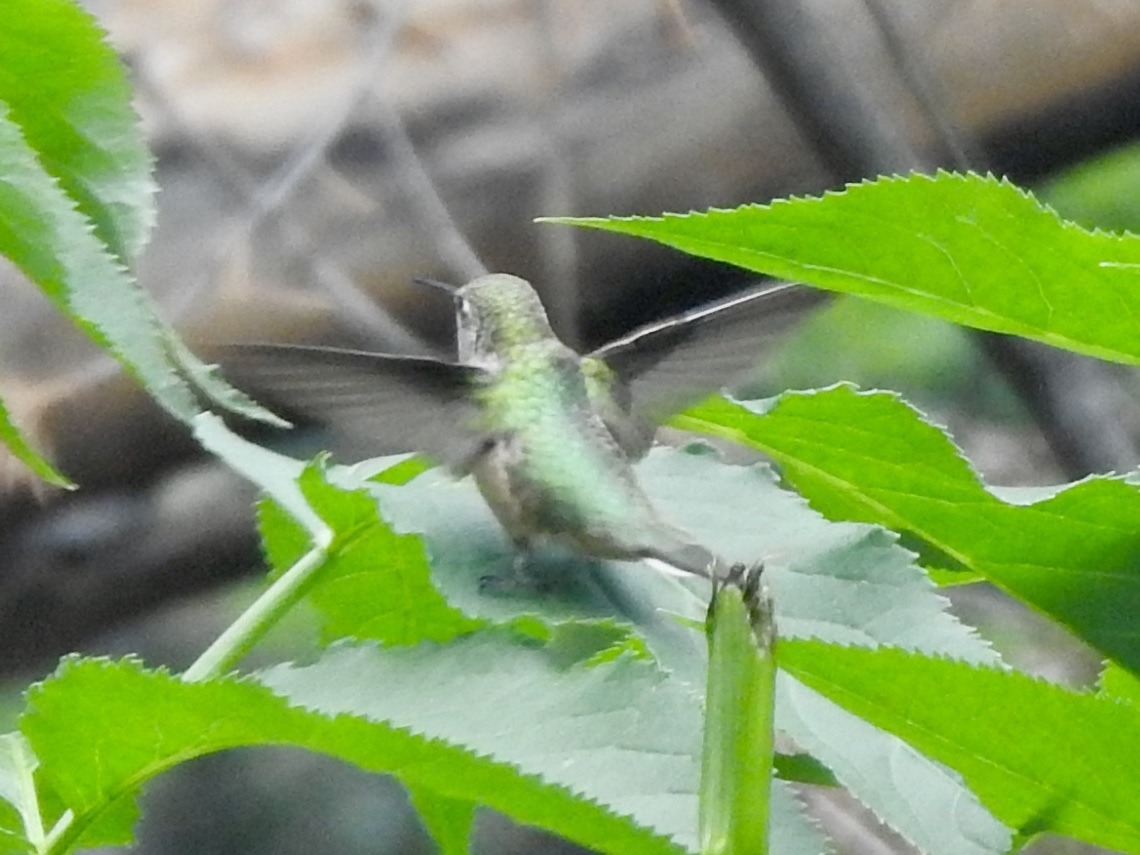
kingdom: Animalia
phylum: Chordata
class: Aves
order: Apodiformes
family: Trochilidae
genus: Selasphorus
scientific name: Selasphorus platycercus
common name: Broad-tailed hummingbird
